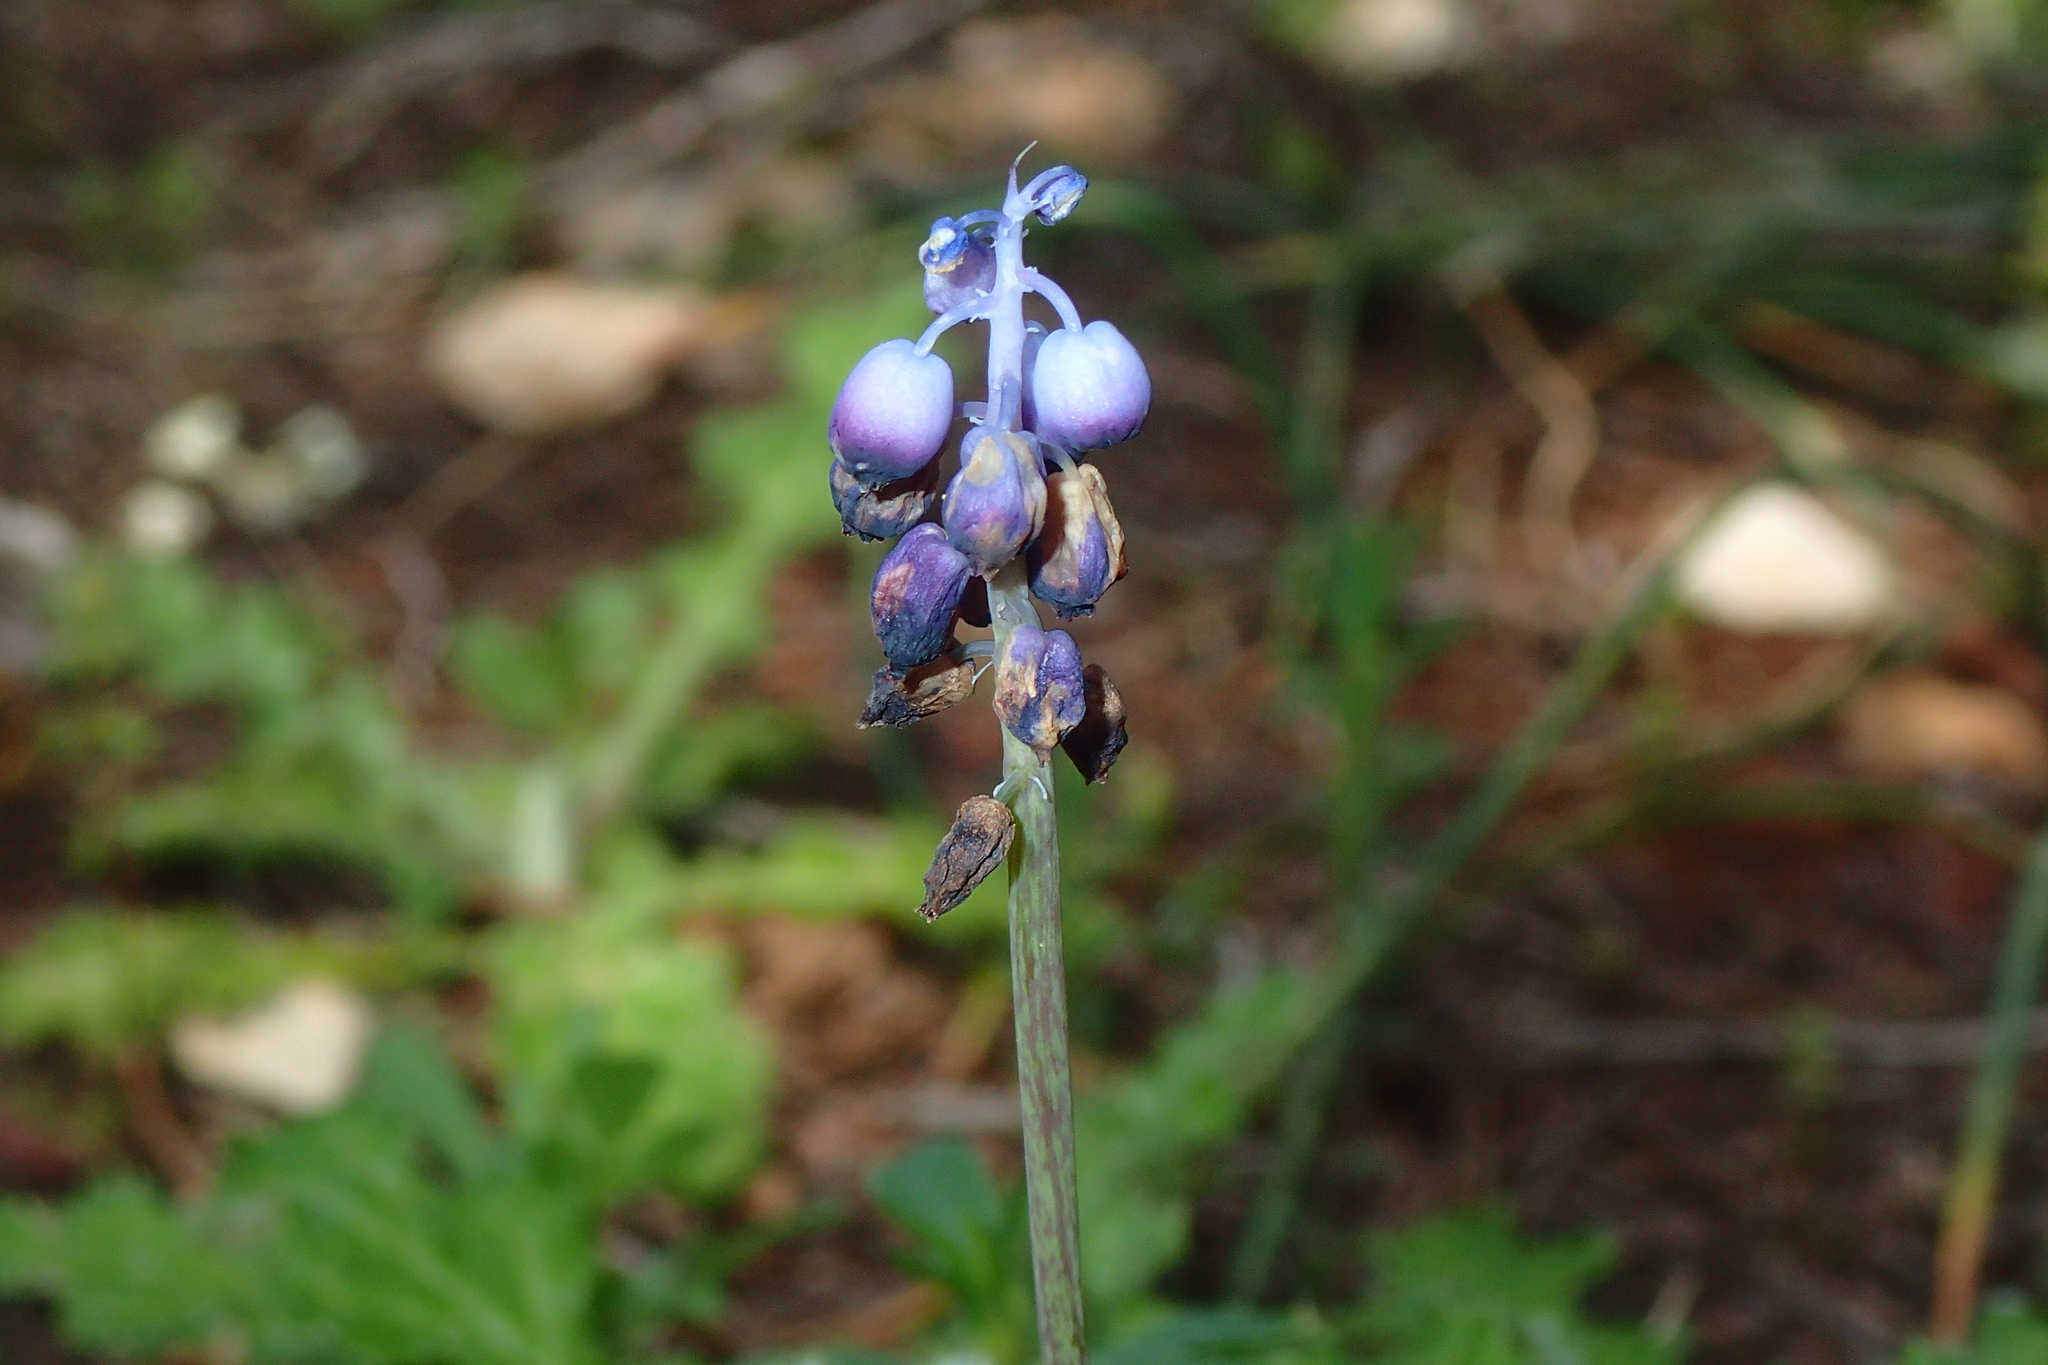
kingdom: Plantae
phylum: Tracheophyta
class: Liliopsida
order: Asparagales
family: Asparagaceae
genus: Muscari
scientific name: Muscari inconstrictum
